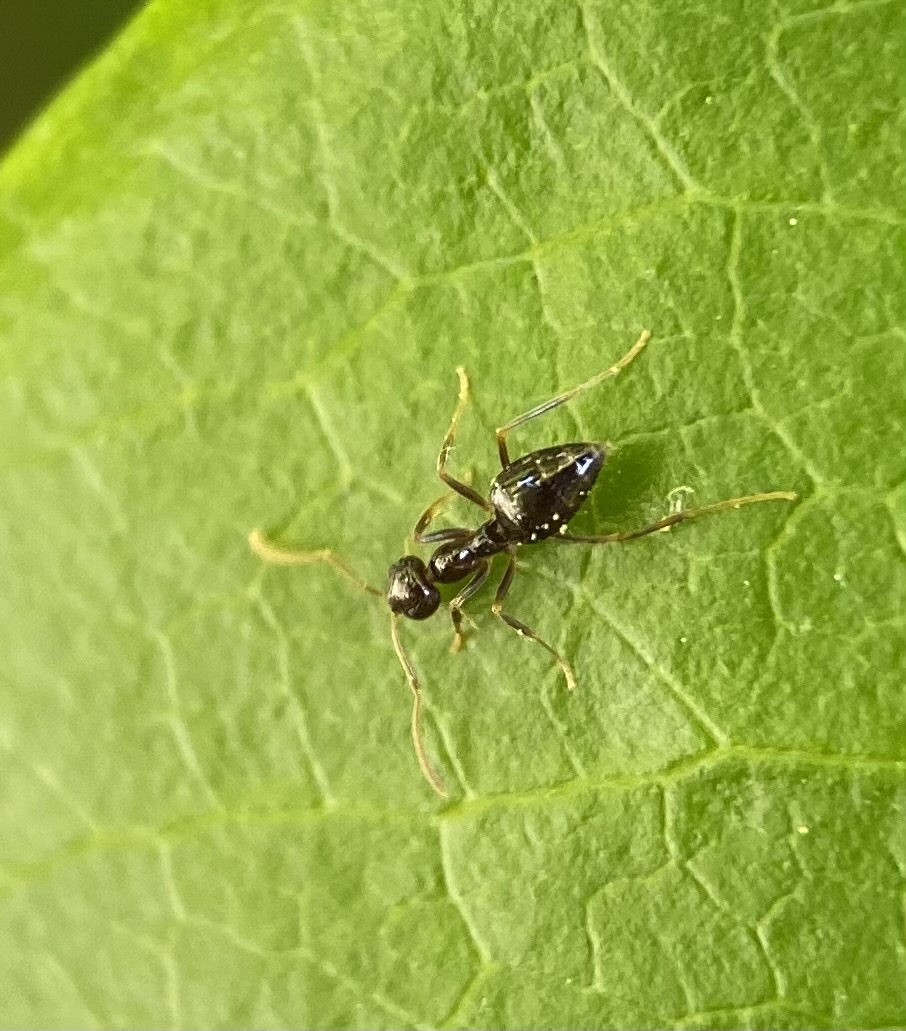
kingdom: Animalia
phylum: Arthropoda
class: Insecta
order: Hymenoptera
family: Formicidae
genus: Prenolepis
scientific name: Prenolepis imparis
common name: Small honey ant
